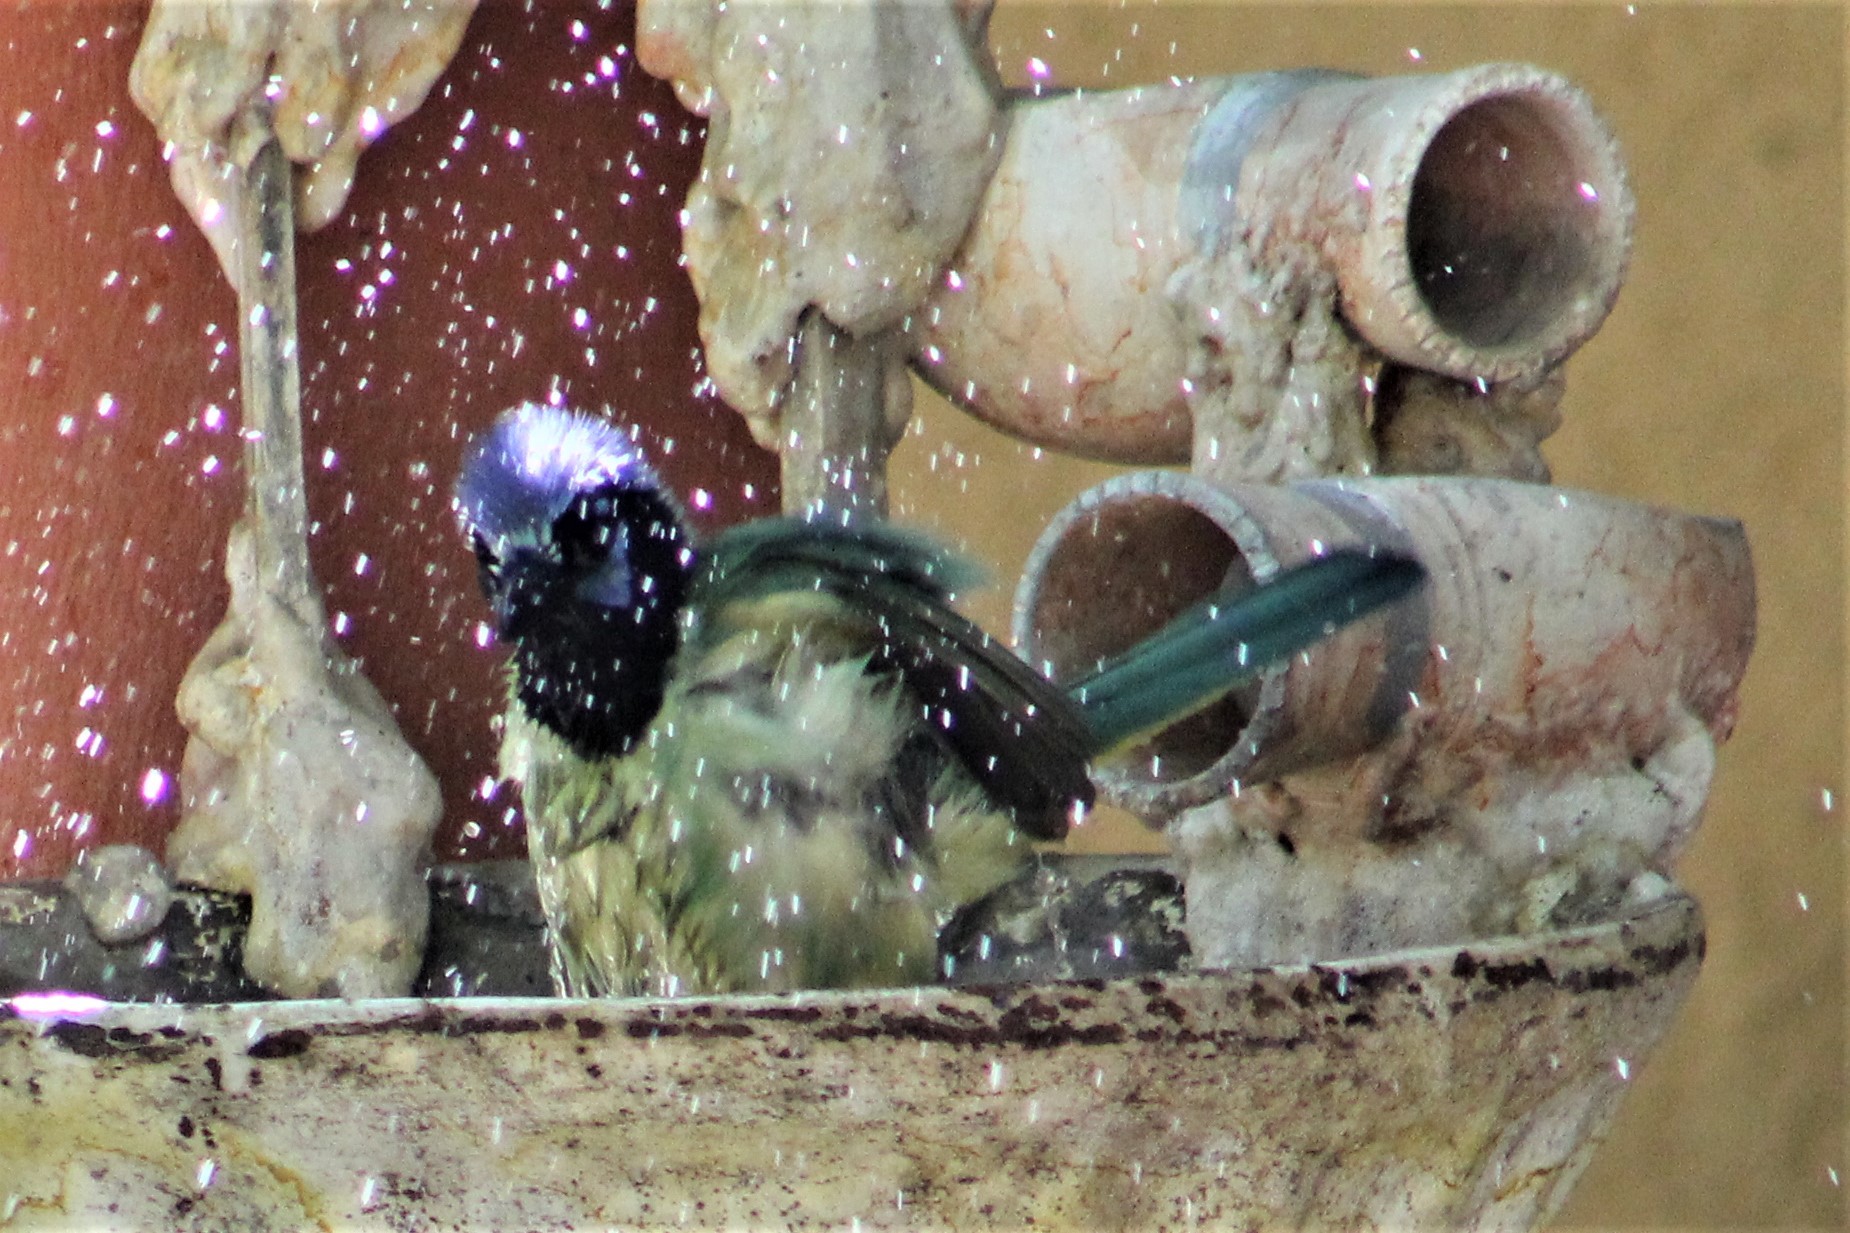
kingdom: Animalia
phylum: Chordata
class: Aves
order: Passeriformes
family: Corvidae
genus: Cyanocorax
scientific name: Cyanocorax yncas
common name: Green jay
